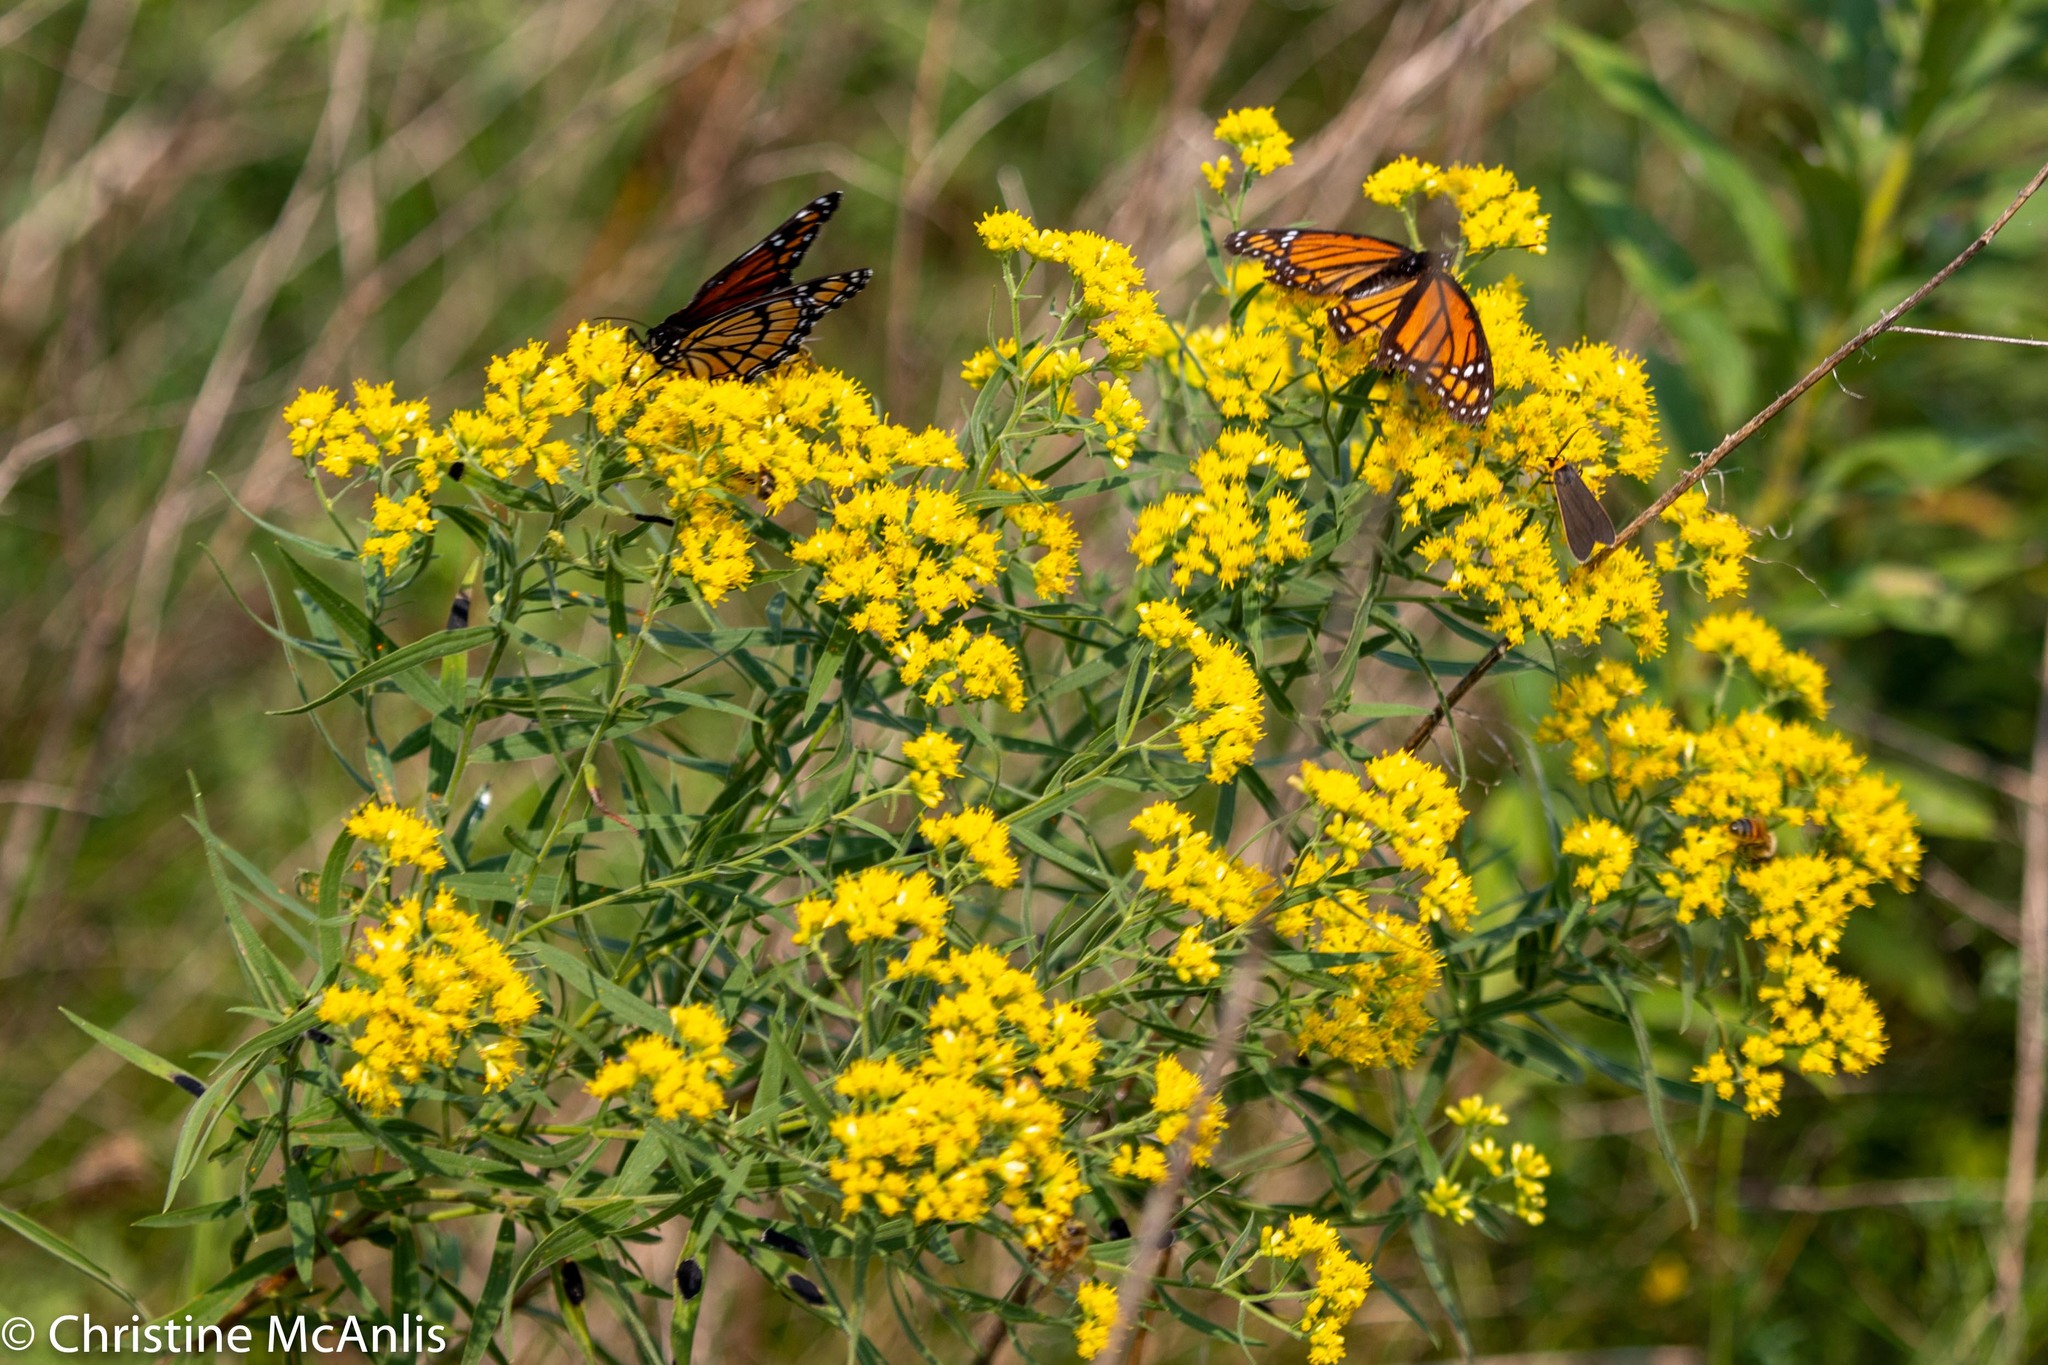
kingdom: Animalia
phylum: Arthropoda
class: Insecta
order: Lepidoptera
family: Nymphalidae
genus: Limenitis
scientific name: Limenitis archippus
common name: Viceroy
